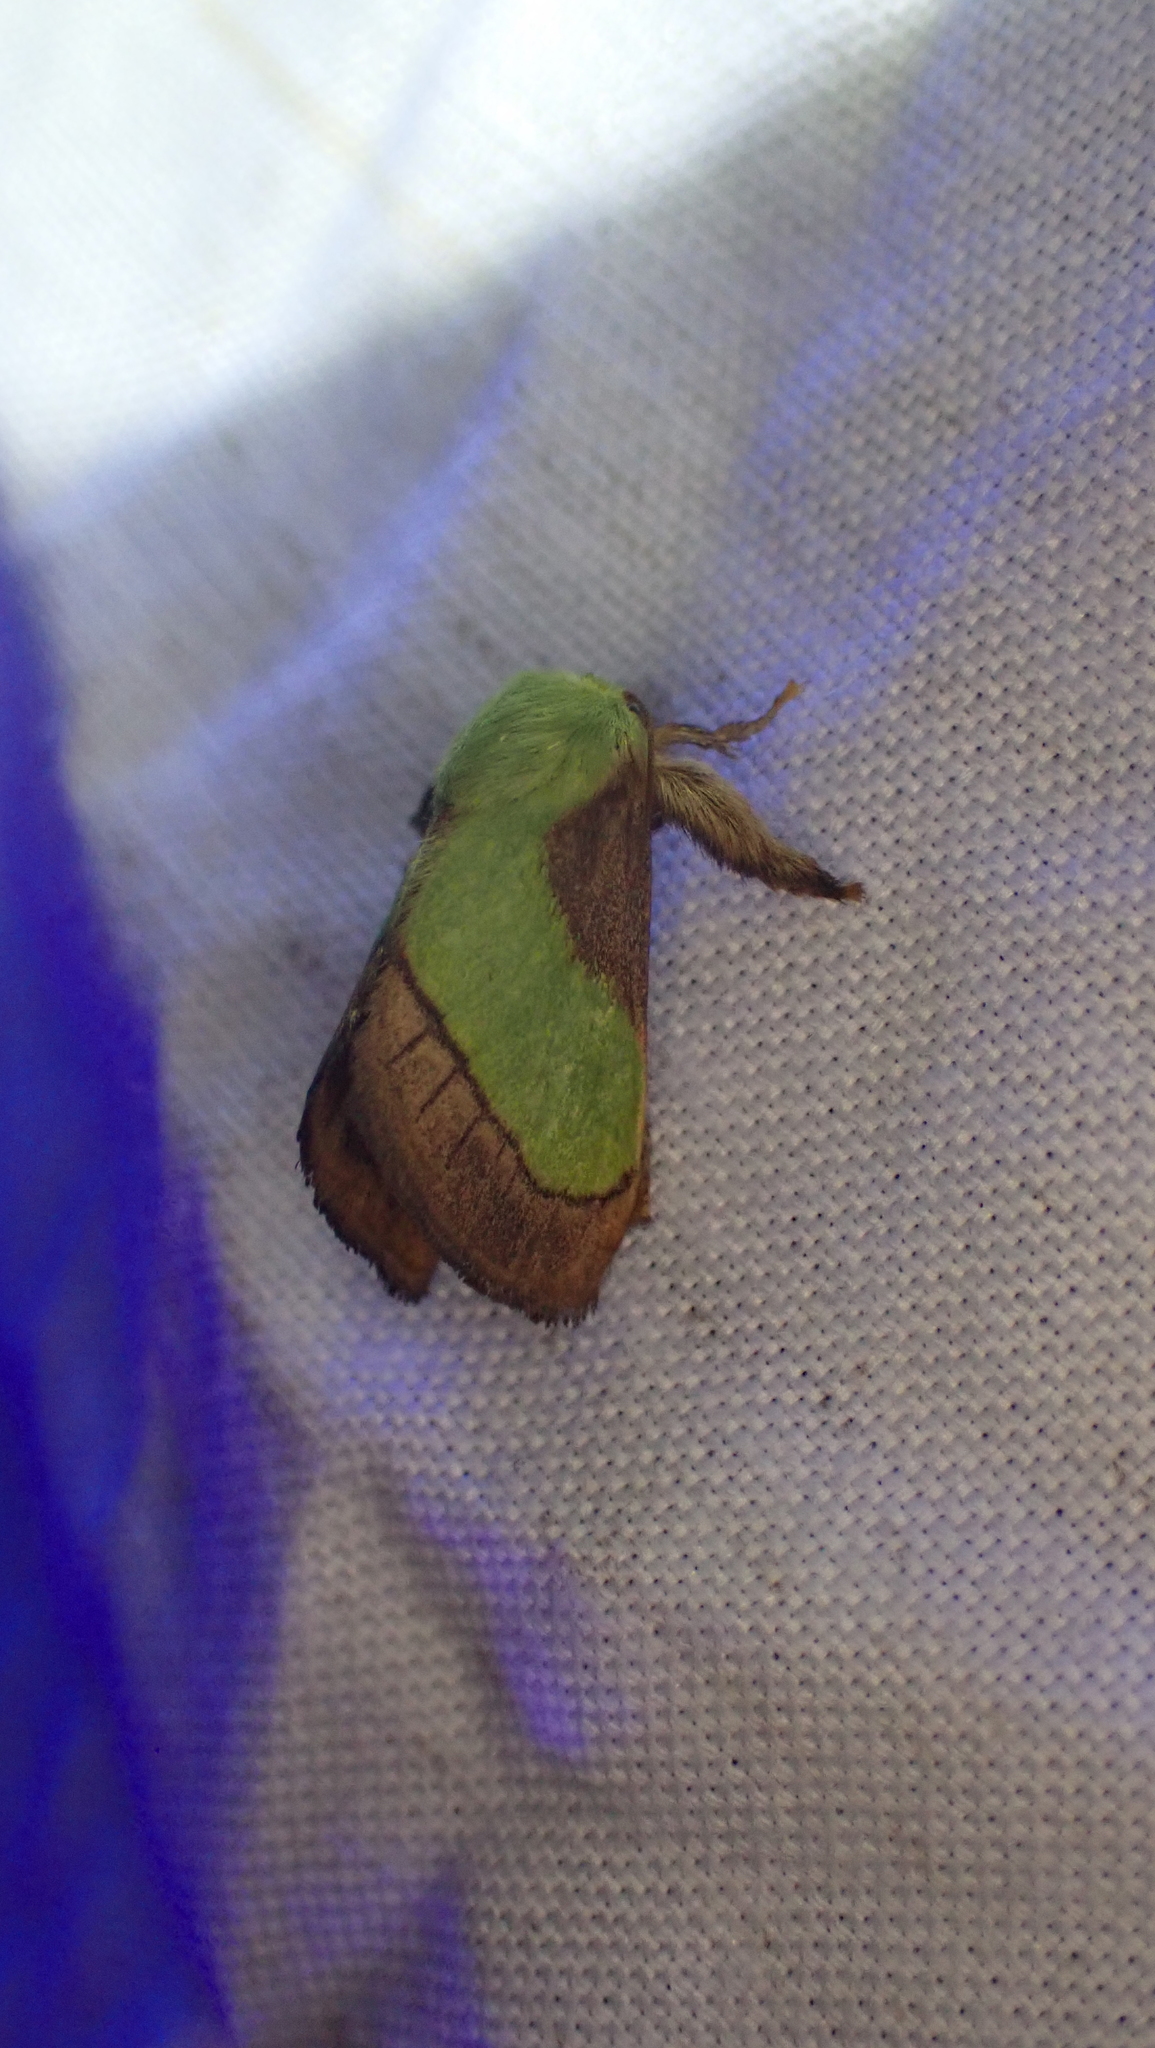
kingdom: Animalia
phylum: Arthropoda
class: Insecta
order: Lepidoptera
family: Limacodidae
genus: Parasa
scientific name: Parasa chloris
